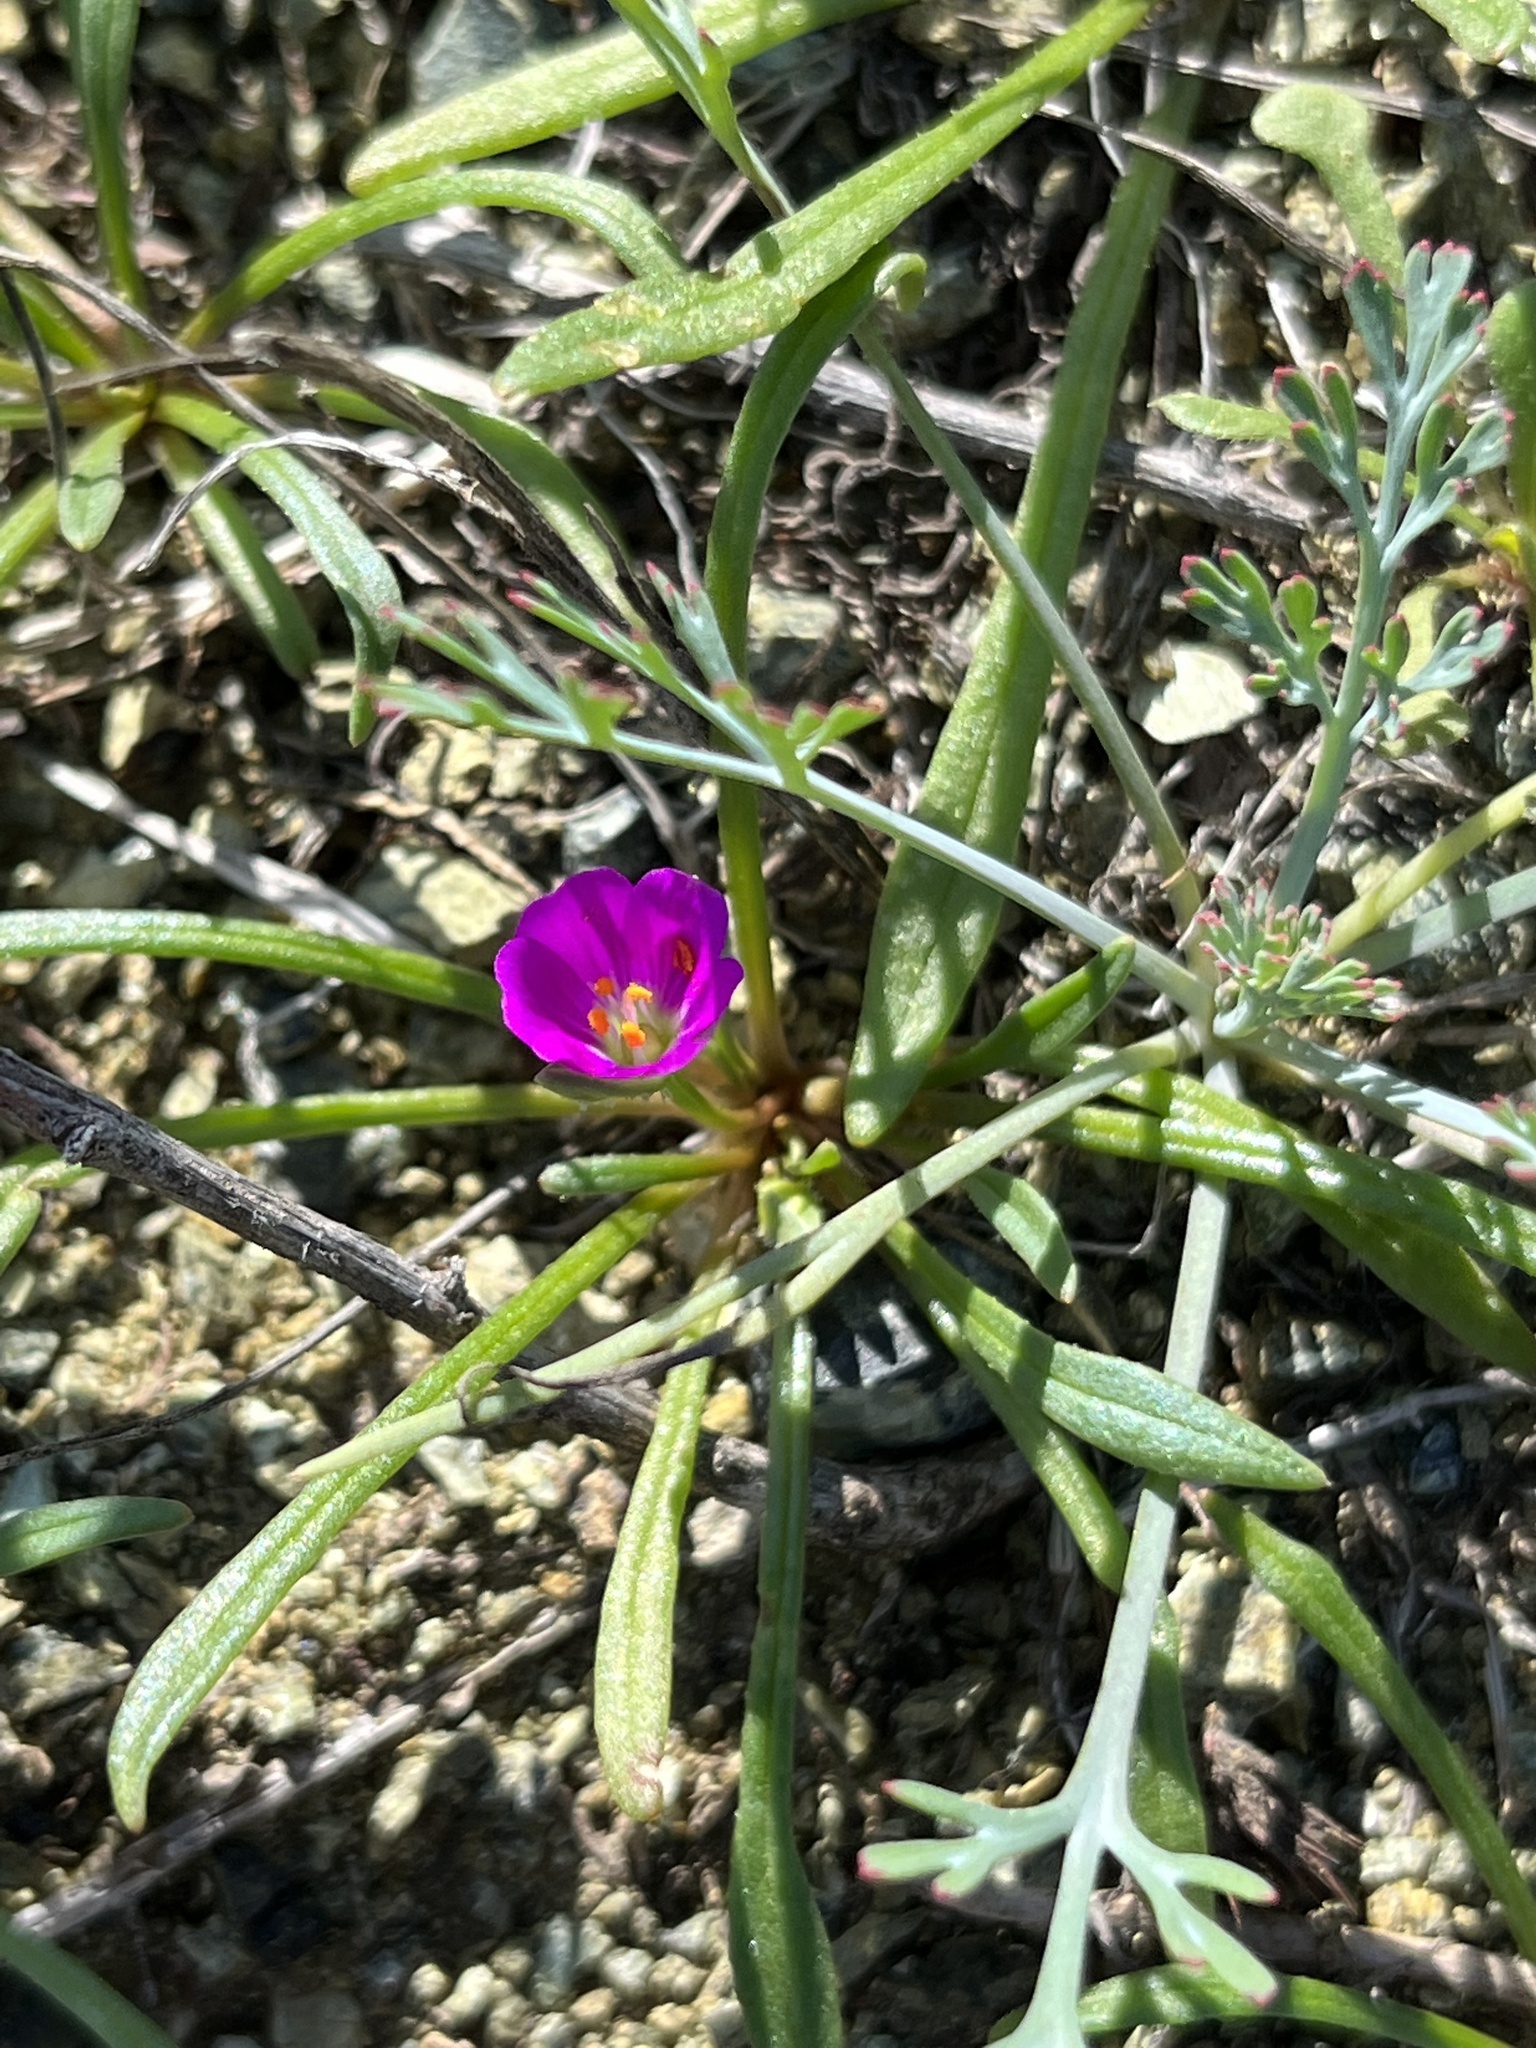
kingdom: Plantae
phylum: Tracheophyta
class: Magnoliopsida
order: Caryophyllales
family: Montiaceae
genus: Calandrinia
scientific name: Calandrinia menziesii
